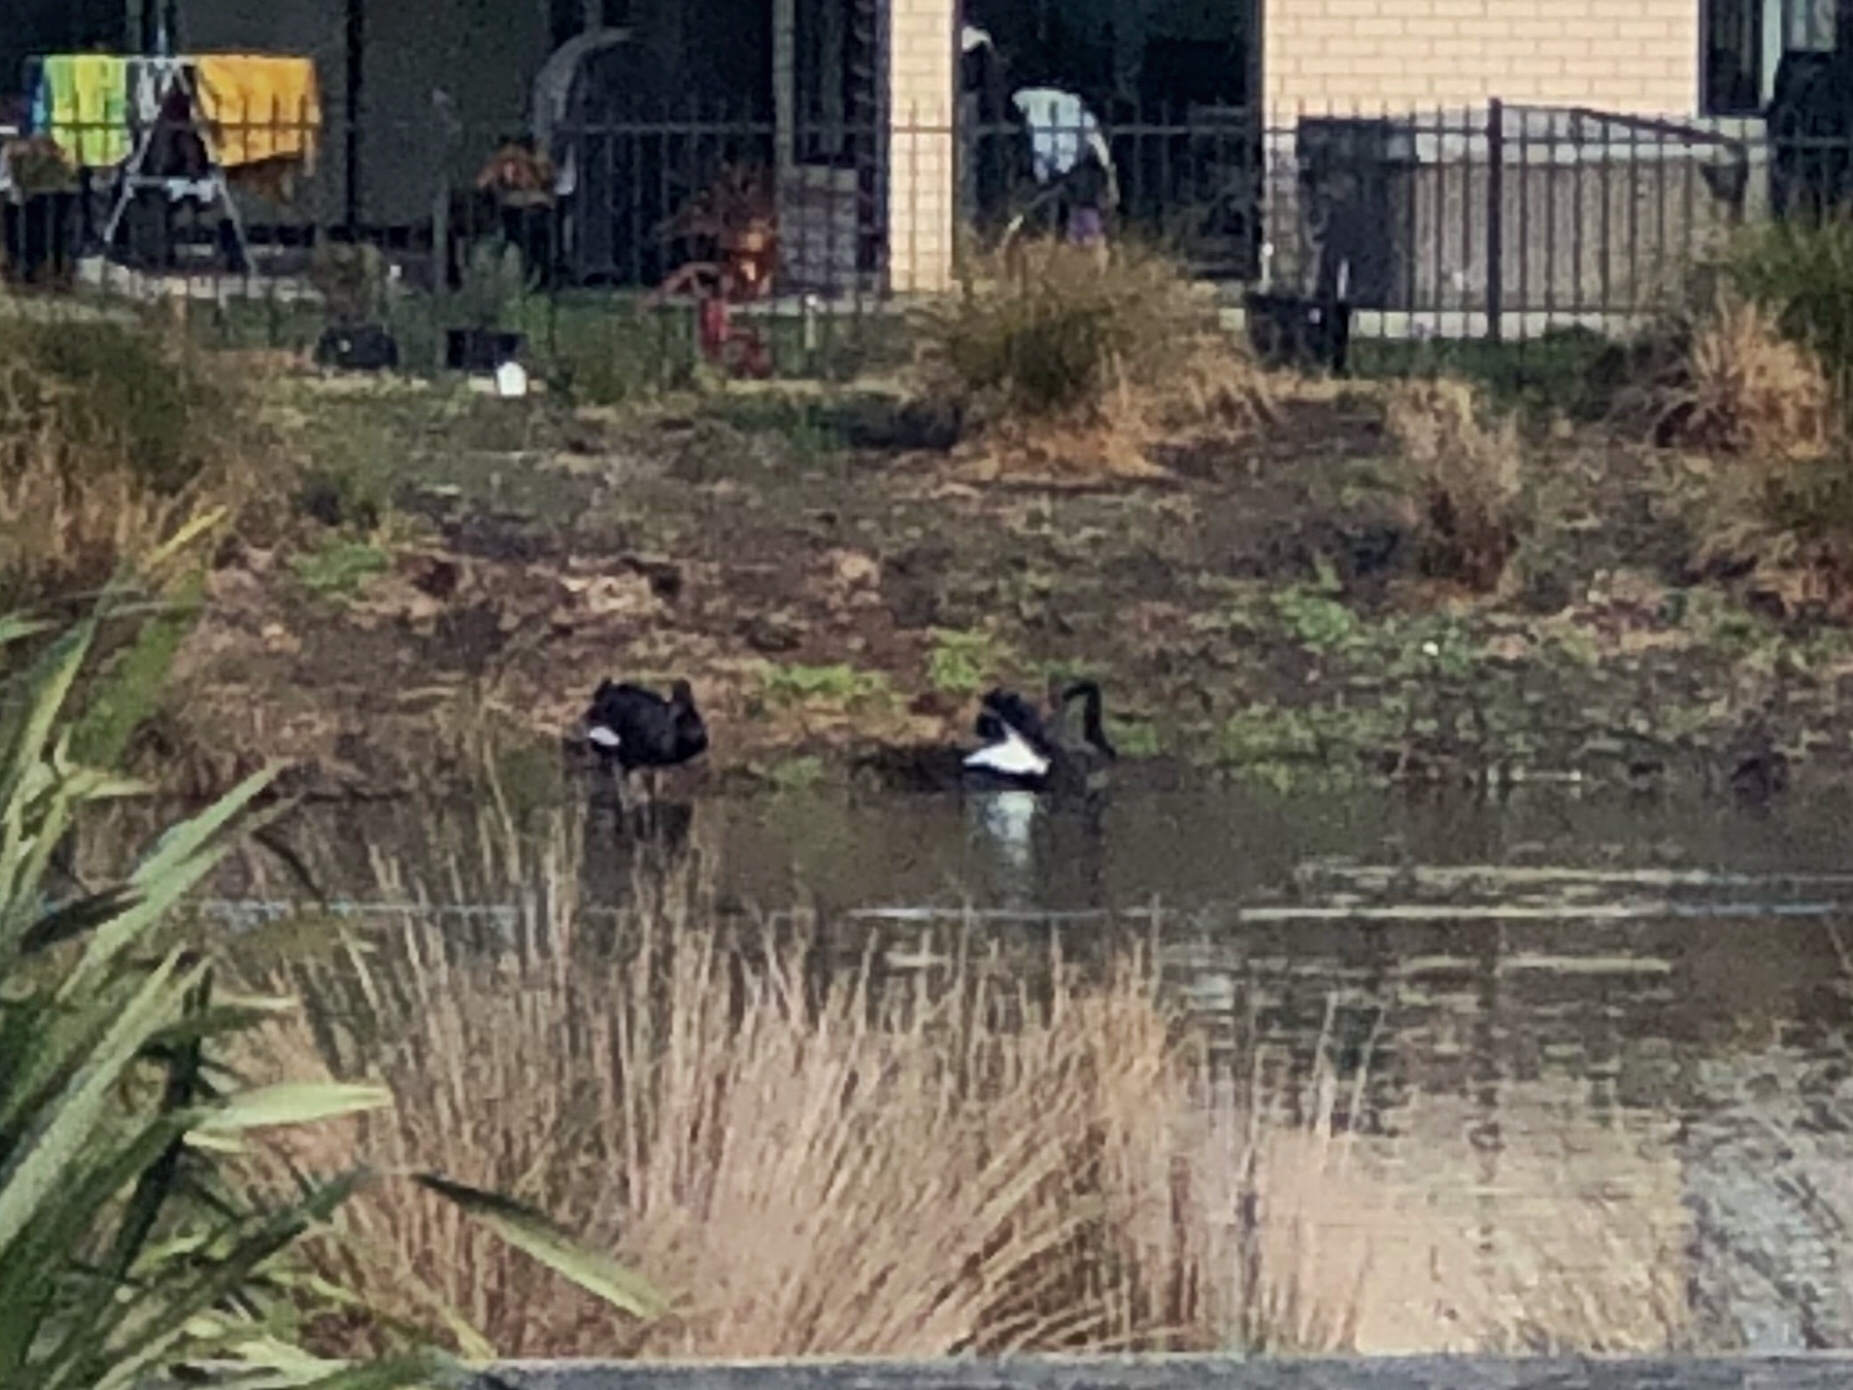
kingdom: Animalia
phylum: Chordata
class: Aves
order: Anseriformes
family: Anatidae
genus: Cygnus
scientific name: Cygnus atratus
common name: Black swan
